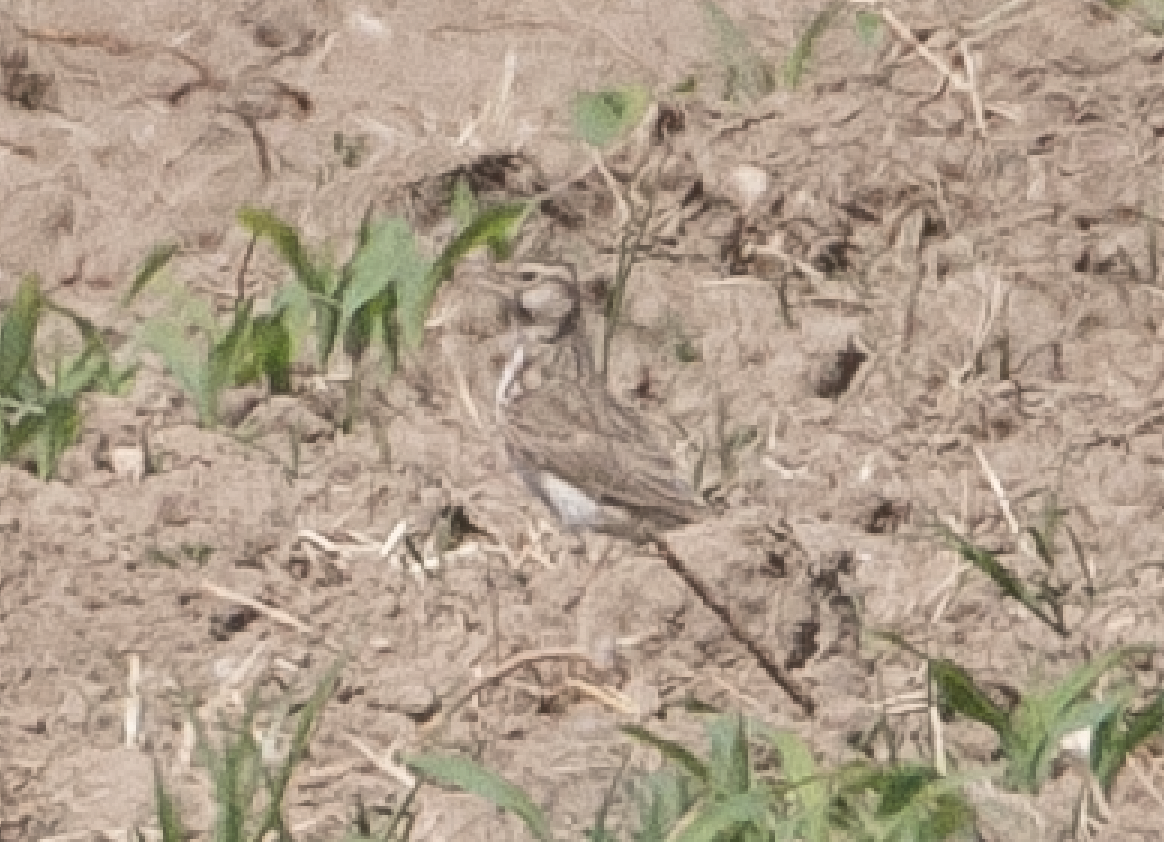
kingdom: Animalia
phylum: Chordata
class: Aves
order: Passeriformes
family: Alaudidae
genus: Galerida
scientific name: Galerida cristata
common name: Crested lark
